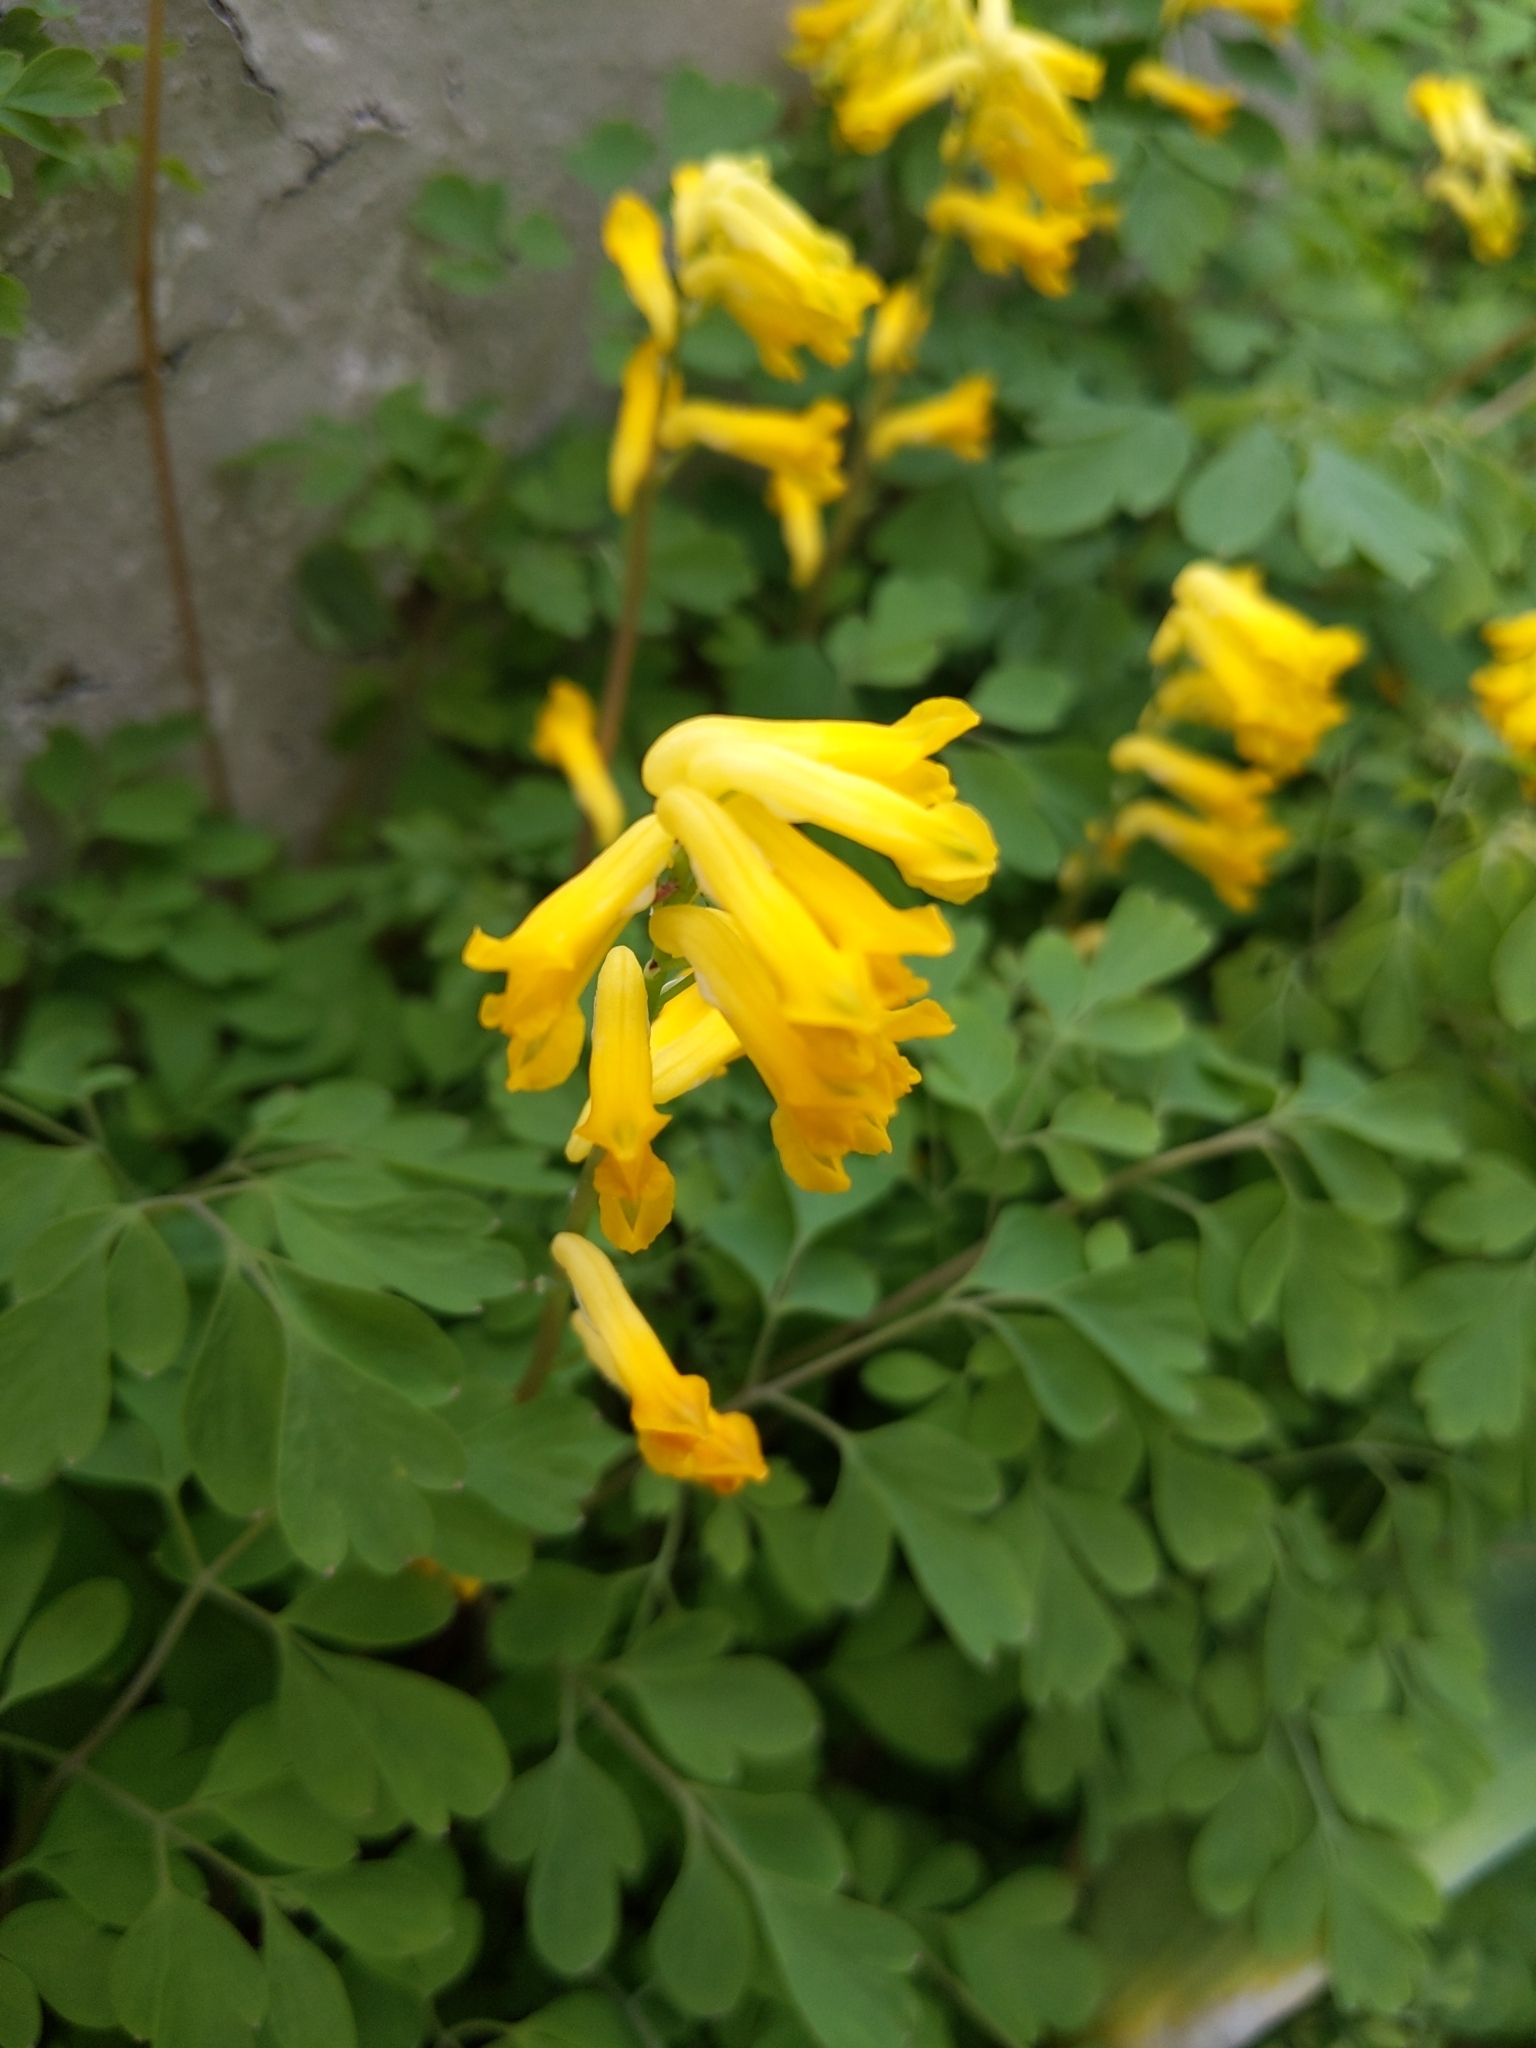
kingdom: Plantae
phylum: Tracheophyta
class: Magnoliopsida
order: Ranunculales
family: Papaveraceae
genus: Pseudofumaria
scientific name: Pseudofumaria lutea
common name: Yellow corydalis
